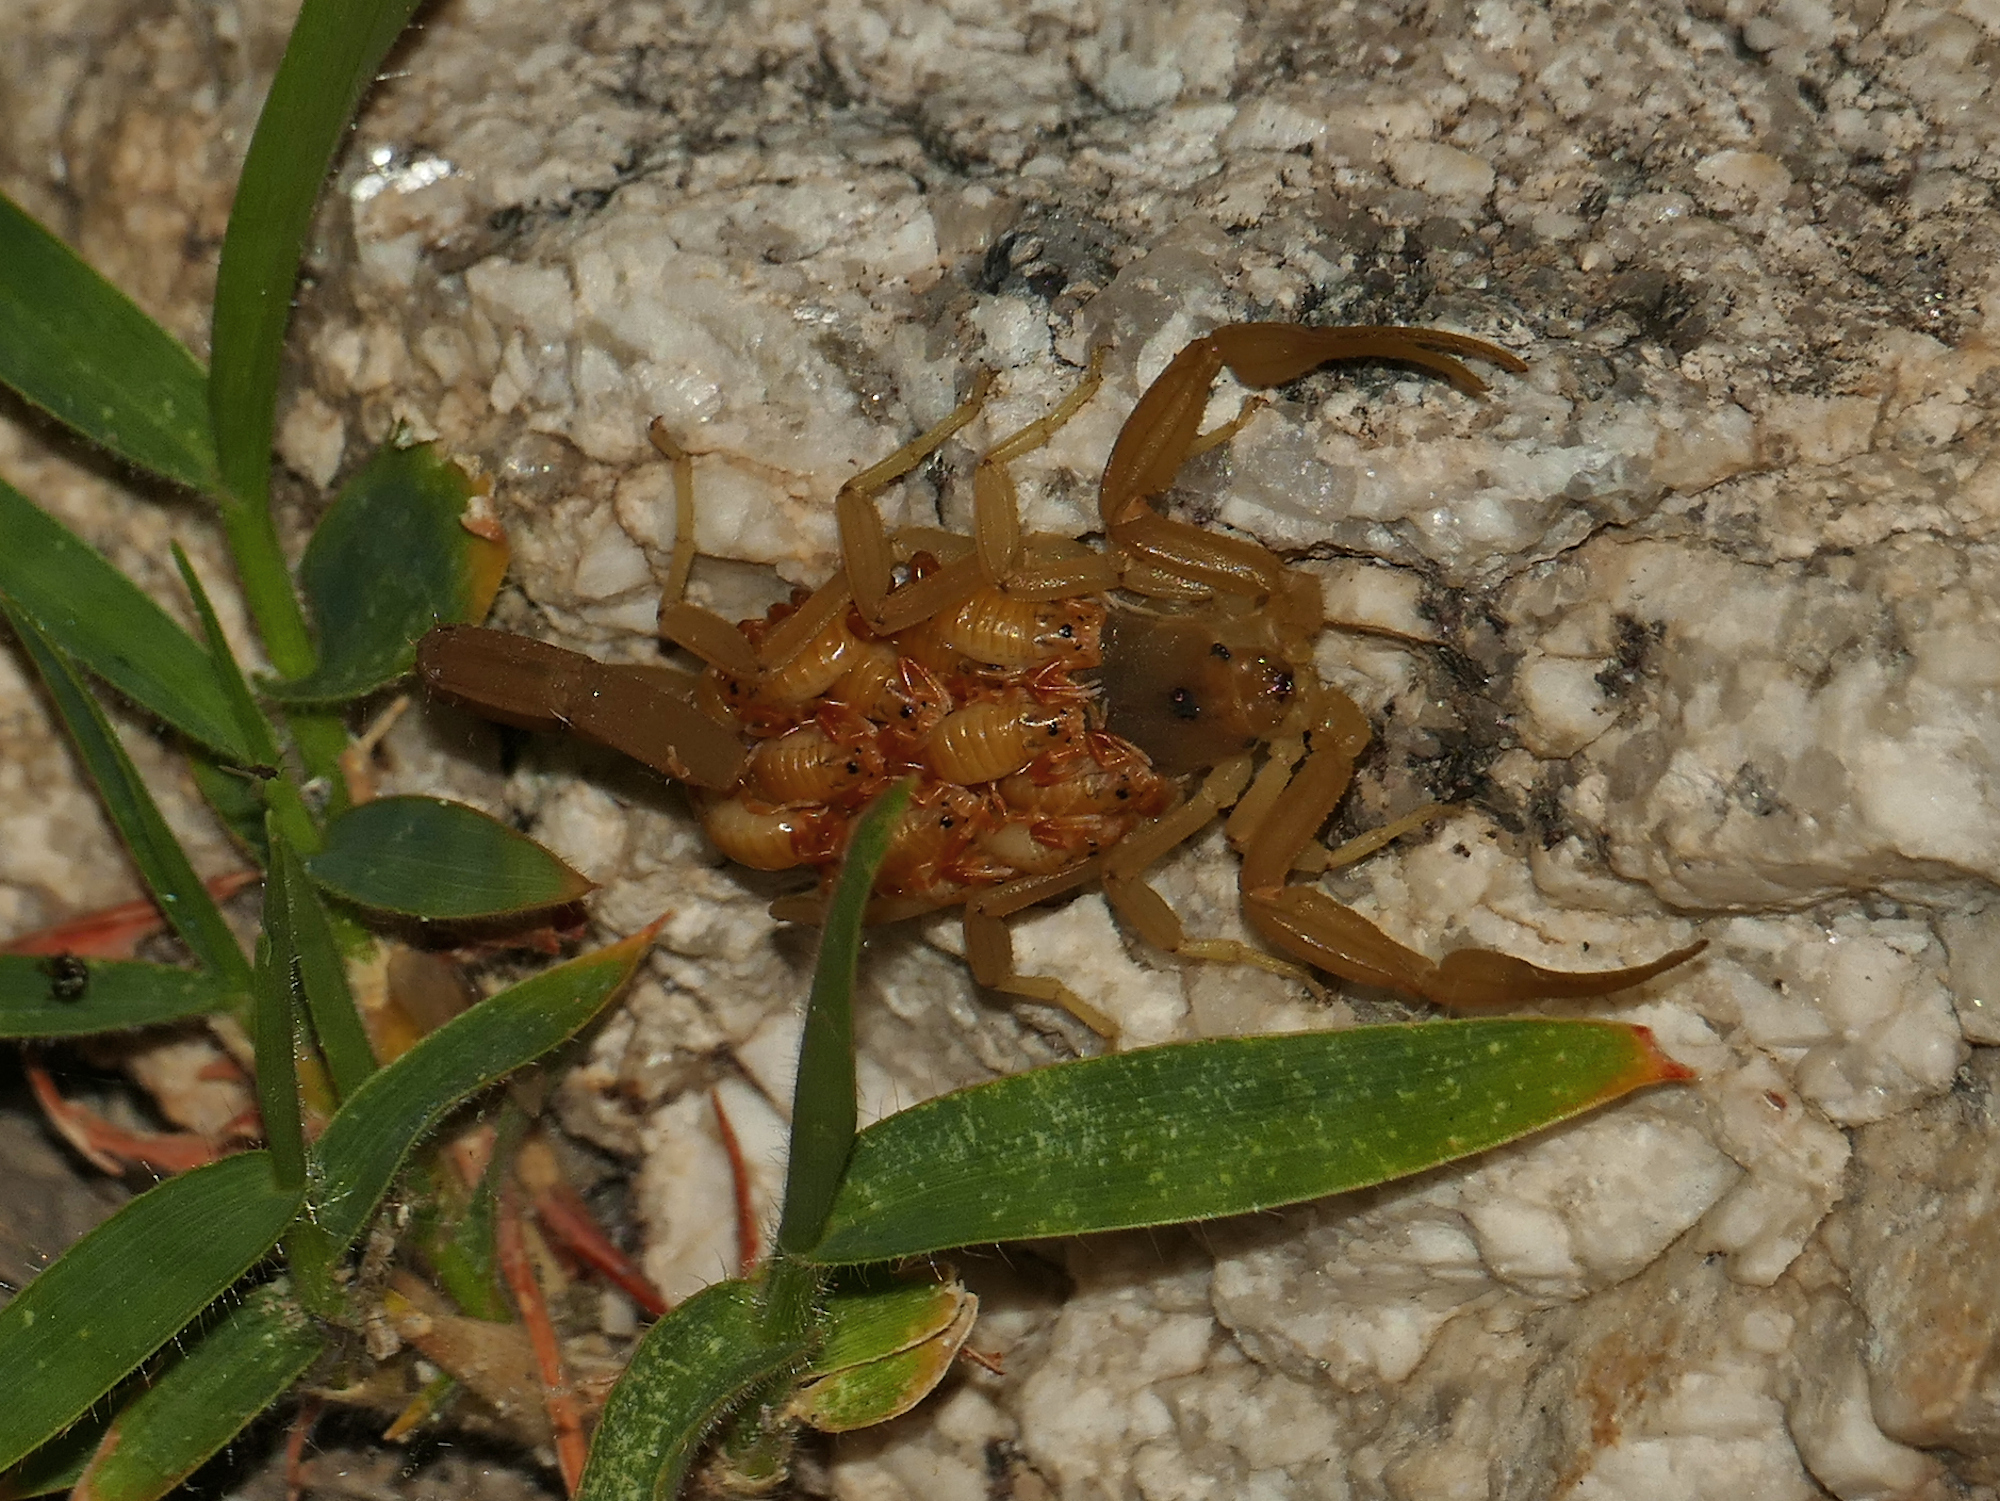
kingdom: Animalia
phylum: Arthropoda
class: Arachnida
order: Scorpiones
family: Buthidae
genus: Centruroides
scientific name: Centruroides sculpturatus
